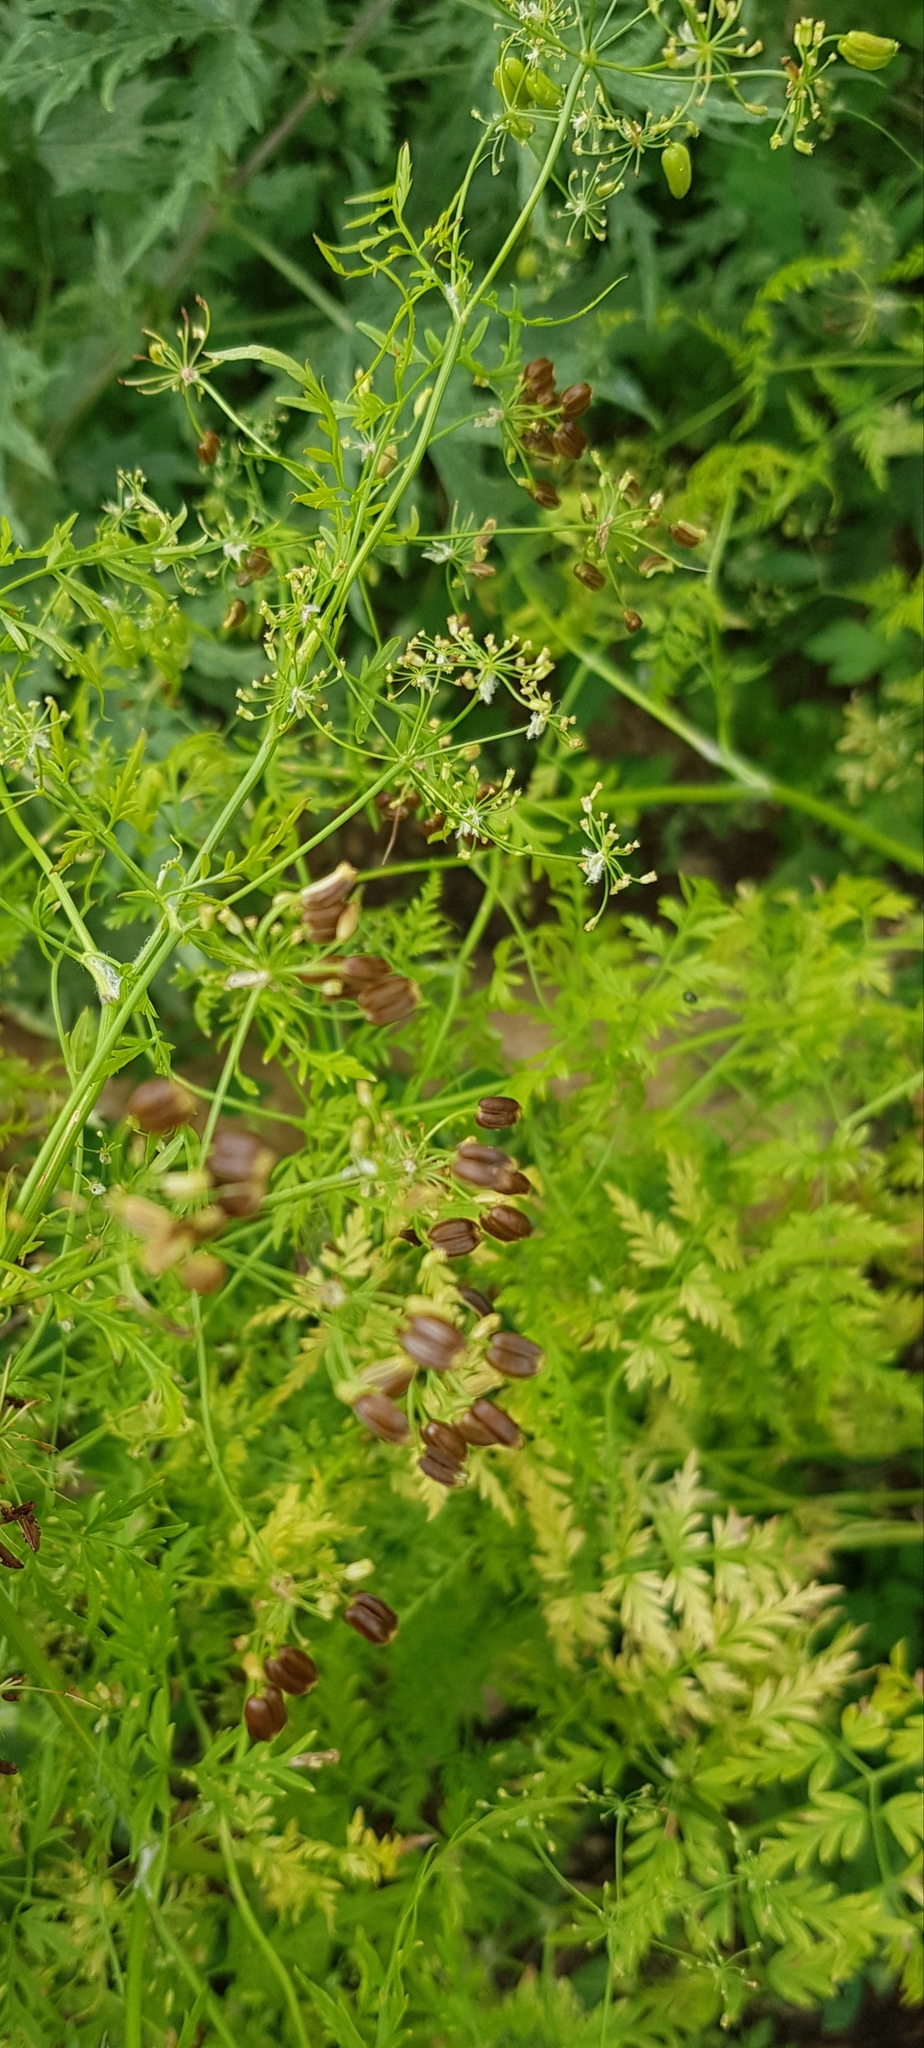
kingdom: Plantae
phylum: Tracheophyta
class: Magnoliopsida
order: Apiales
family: Apiaceae
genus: Sphallerocarpus
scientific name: Sphallerocarpus gracilis
